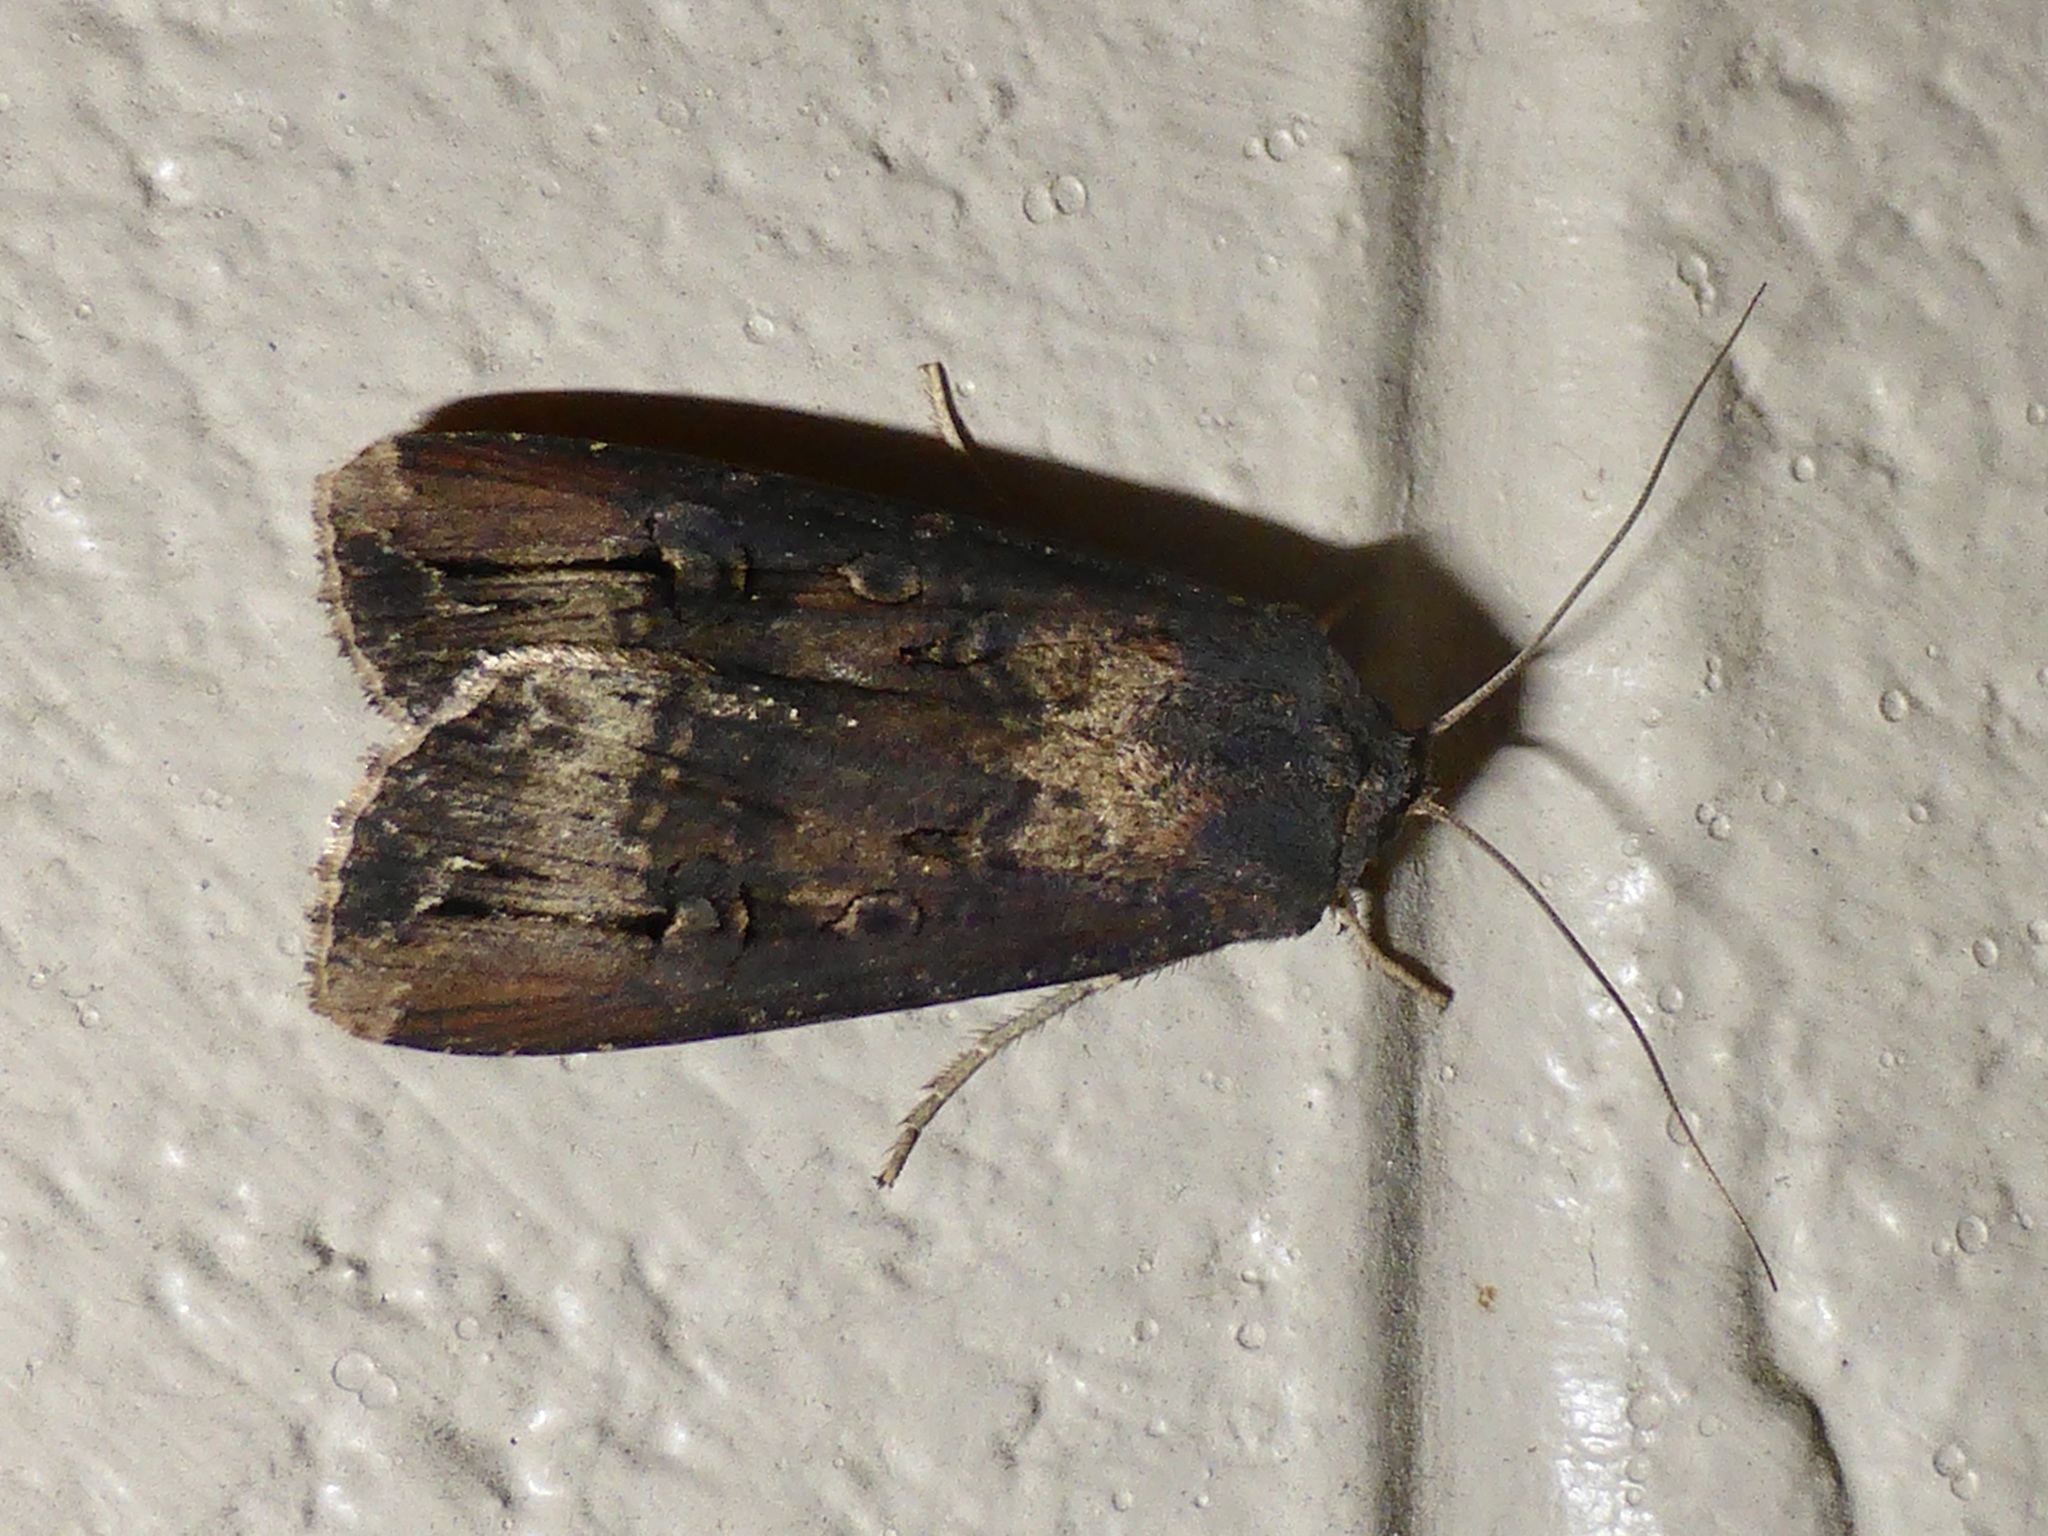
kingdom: Animalia
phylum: Arthropoda
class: Insecta
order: Lepidoptera
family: Noctuidae
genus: Agrotis
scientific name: Agrotis ipsilon
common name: Dark sword-grass
